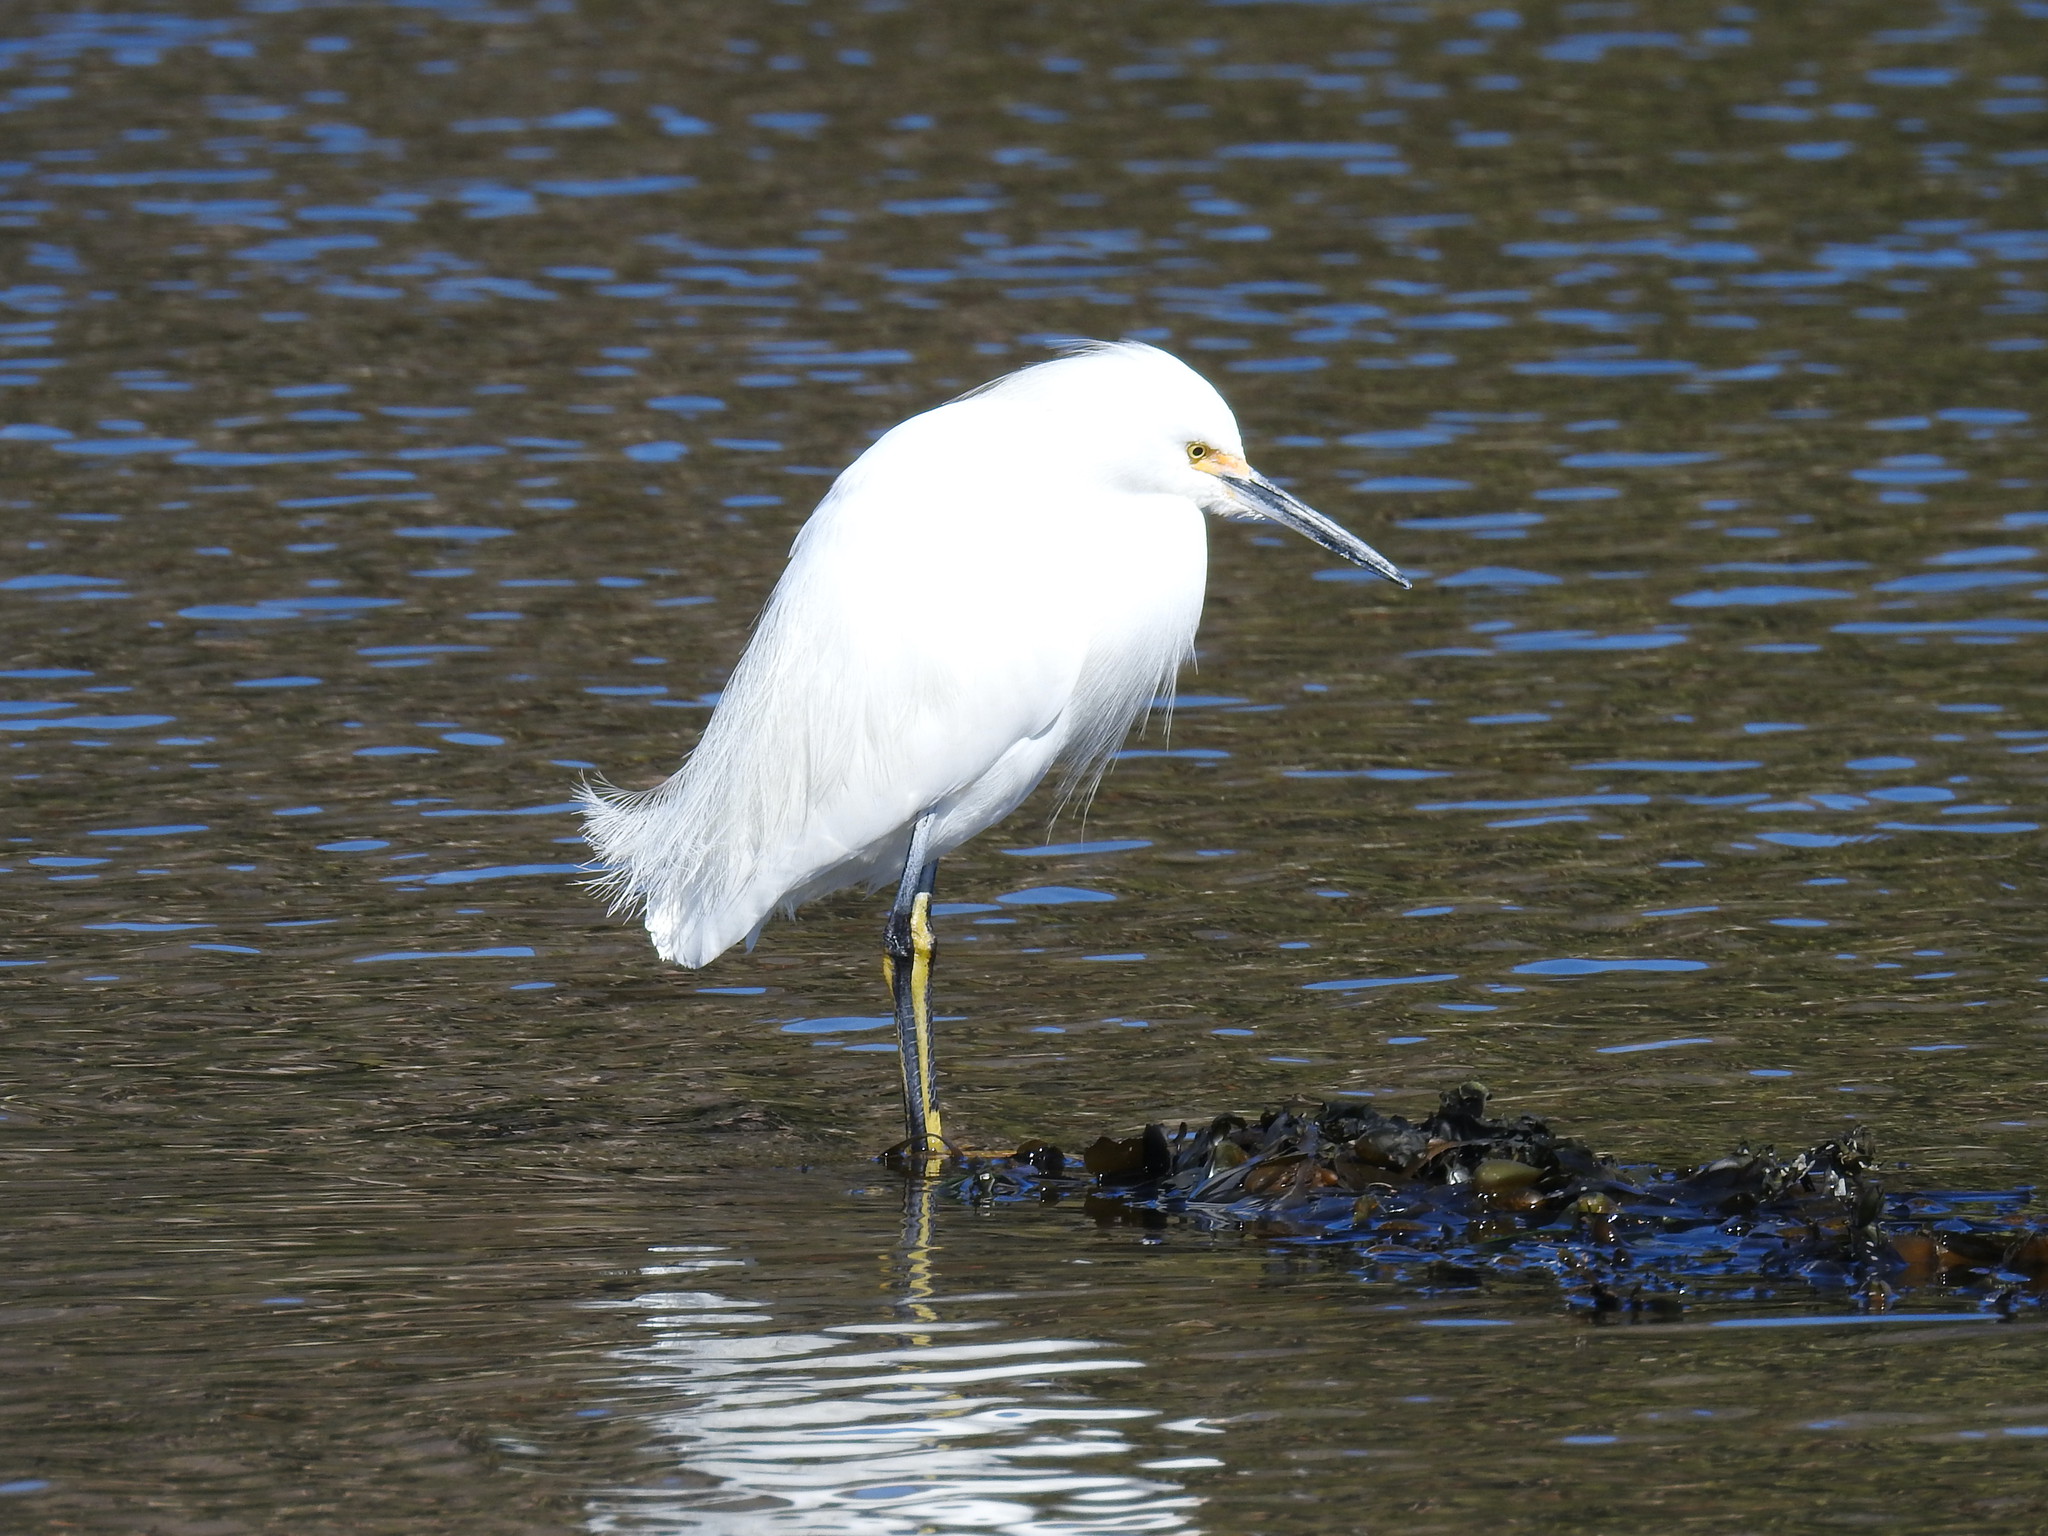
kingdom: Animalia
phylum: Chordata
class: Aves
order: Pelecaniformes
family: Ardeidae
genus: Egretta
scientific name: Egretta thula
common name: Snowy egret
